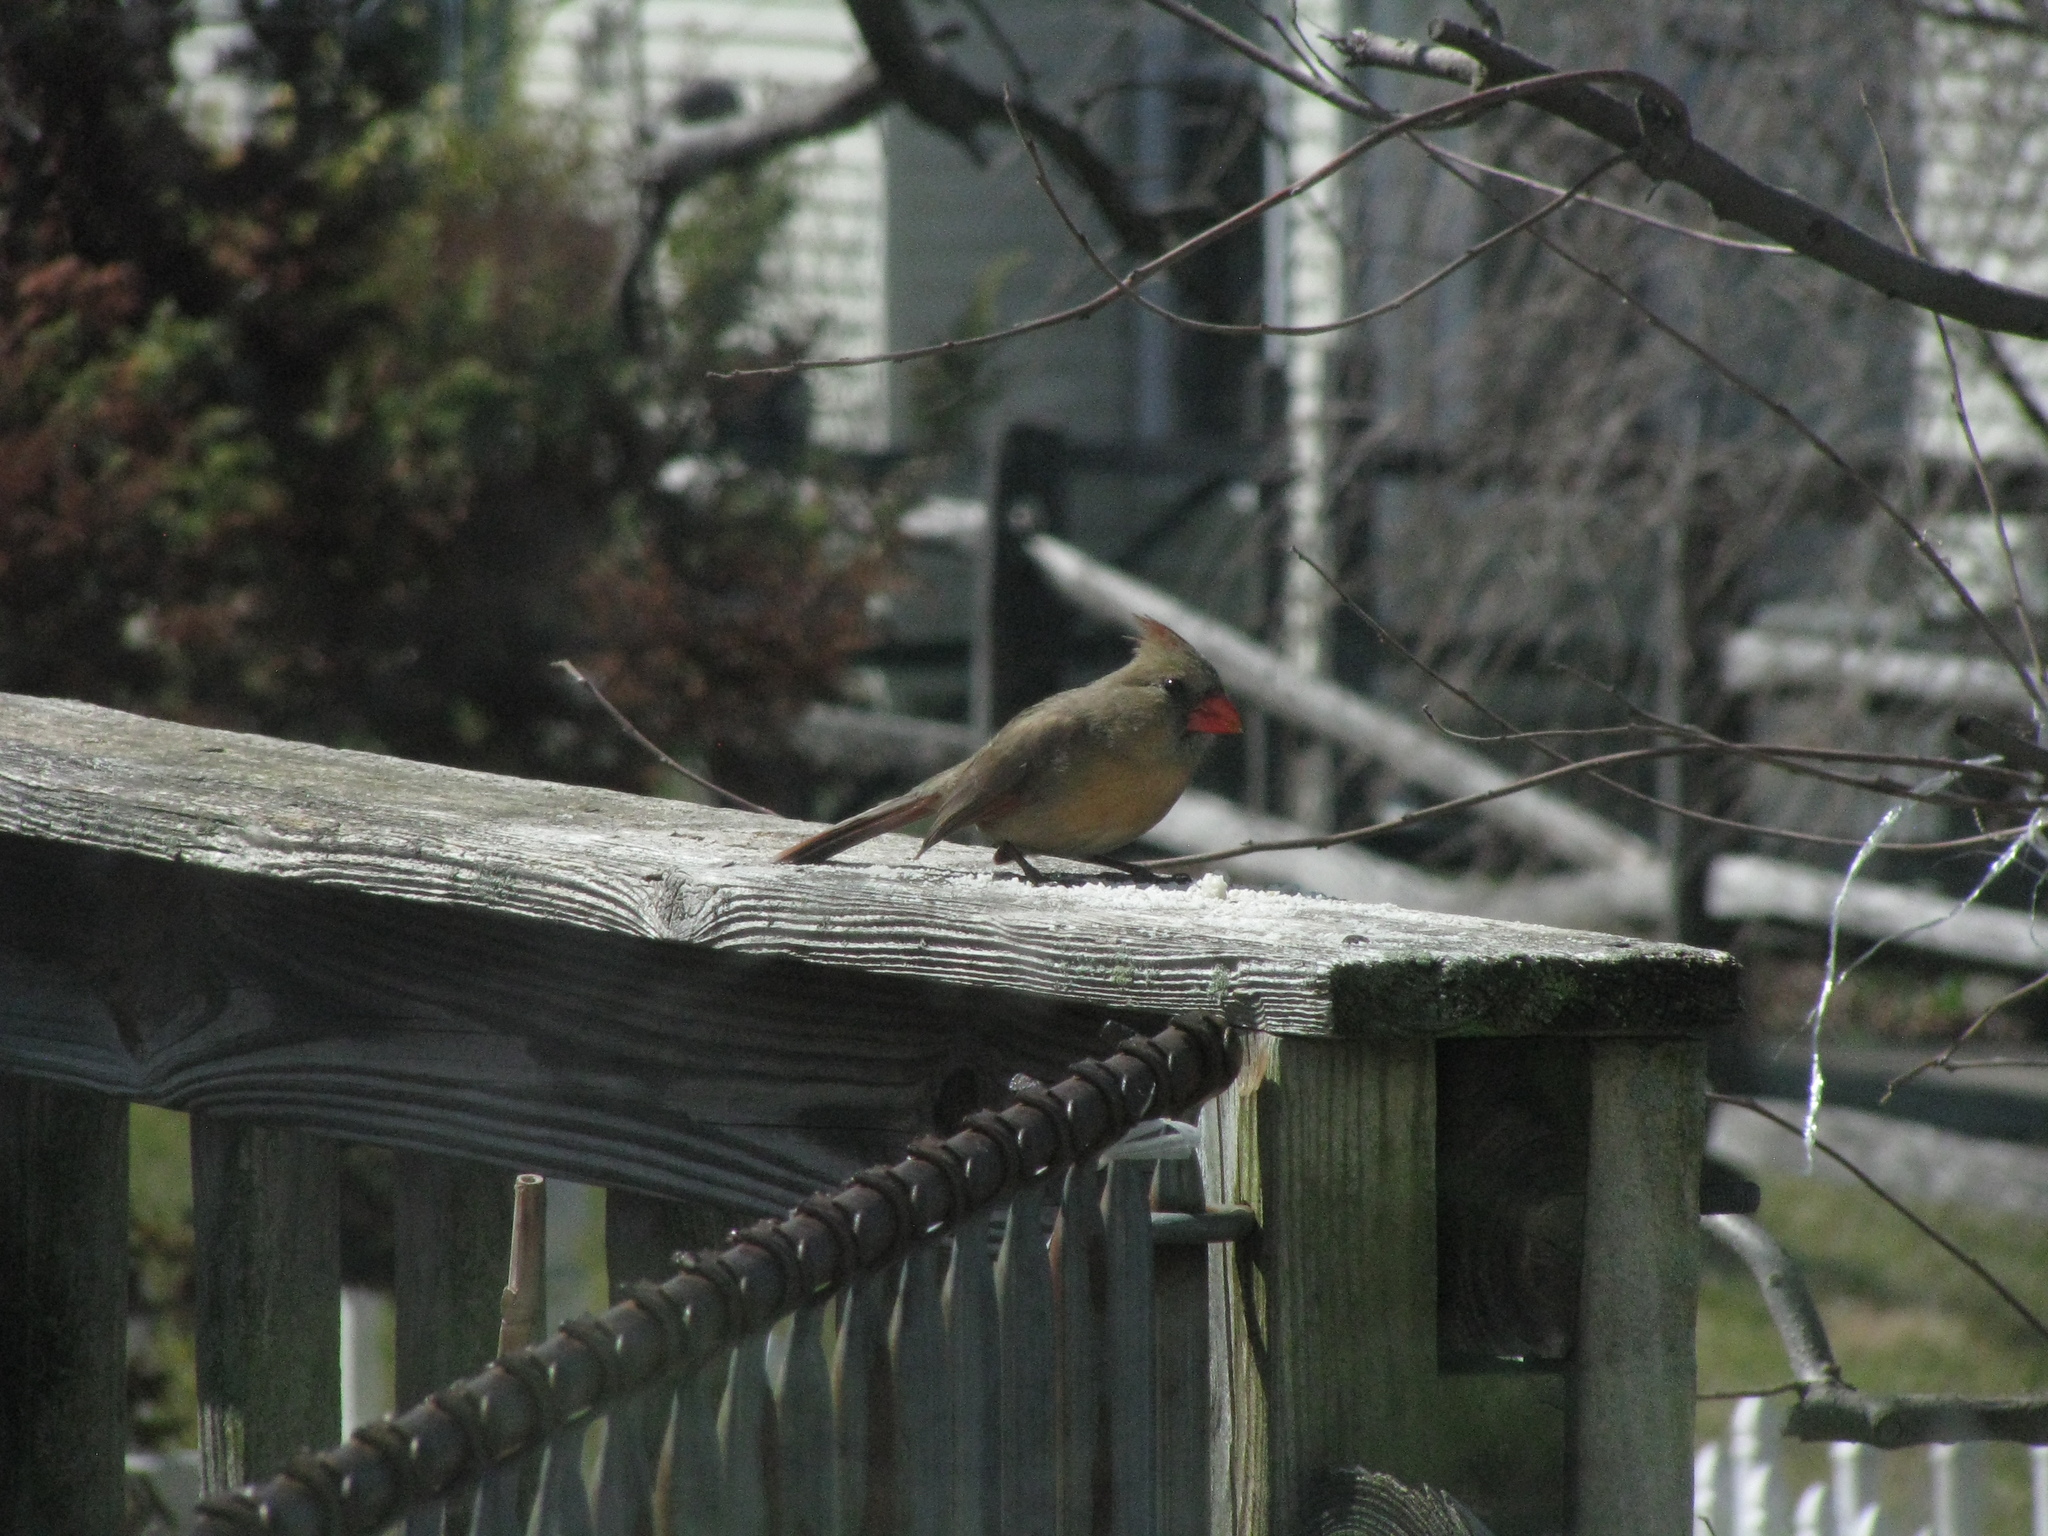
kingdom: Animalia
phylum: Chordata
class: Aves
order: Passeriformes
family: Cardinalidae
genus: Cardinalis
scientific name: Cardinalis cardinalis
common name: Northern cardinal
